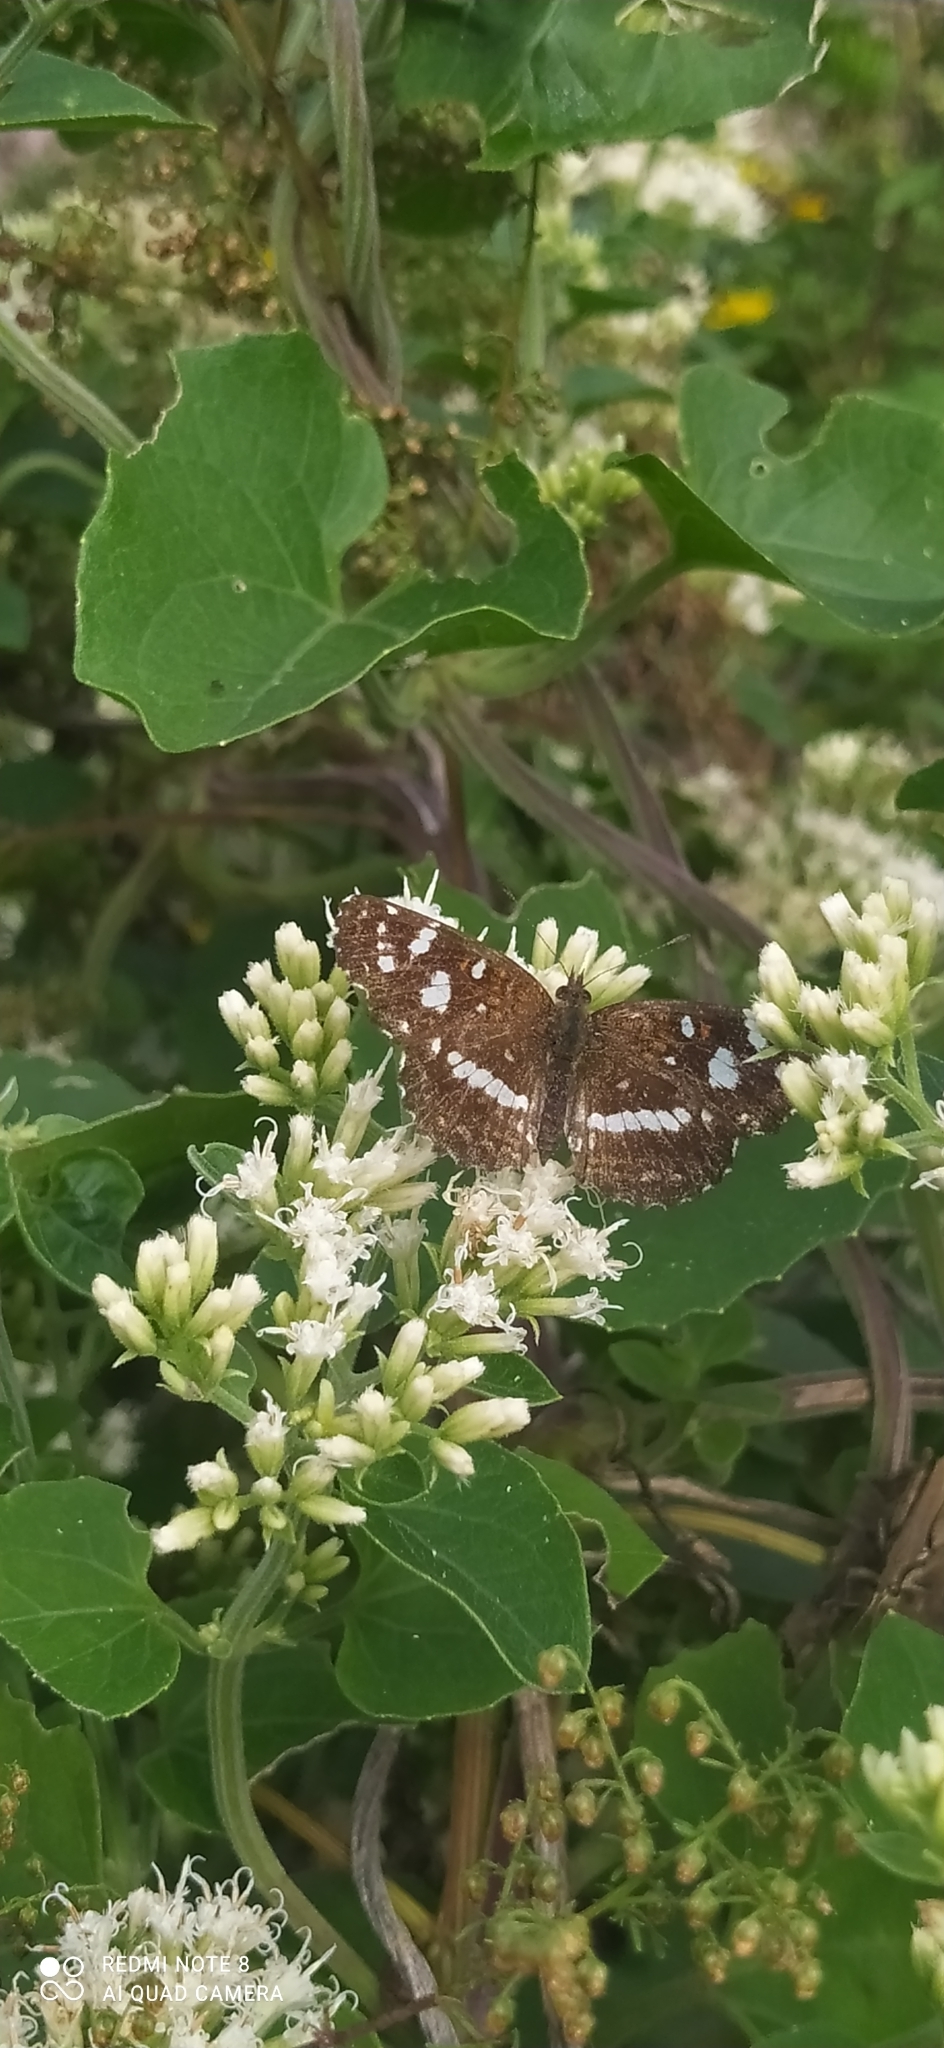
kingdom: Animalia
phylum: Arthropoda
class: Insecta
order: Lepidoptera
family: Nymphalidae
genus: Ortilia
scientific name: Ortilia ithra
